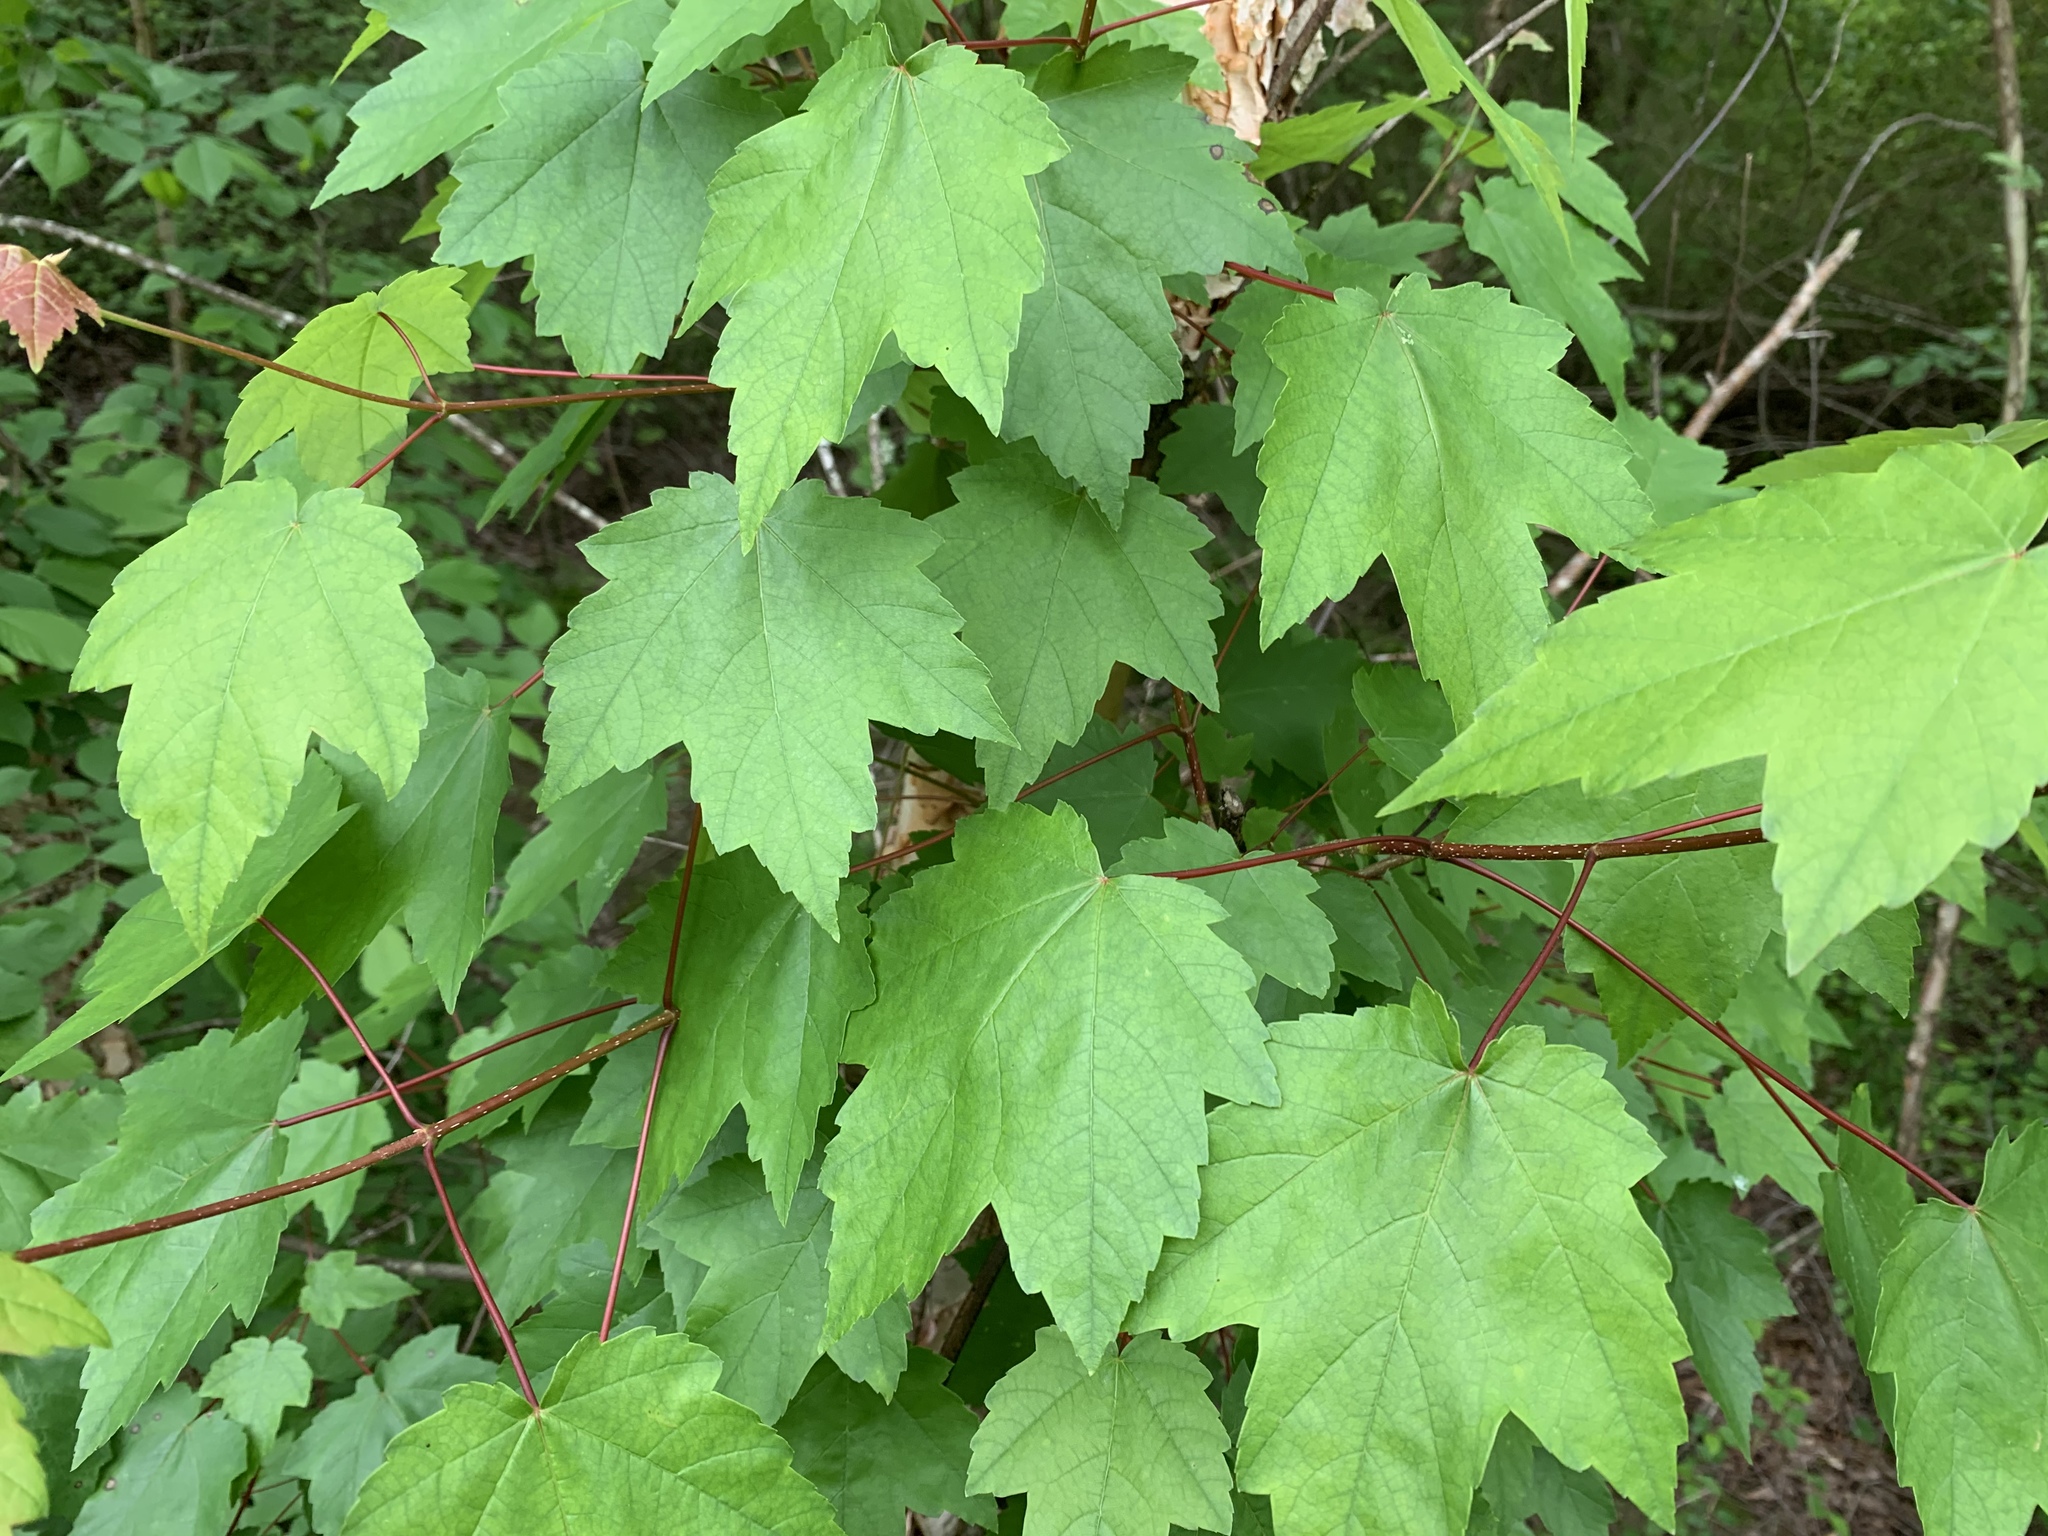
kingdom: Plantae
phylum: Tracheophyta
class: Magnoliopsida
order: Sapindales
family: Sapindaceae
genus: Acer
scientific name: Acer rubrum
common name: Red maple
